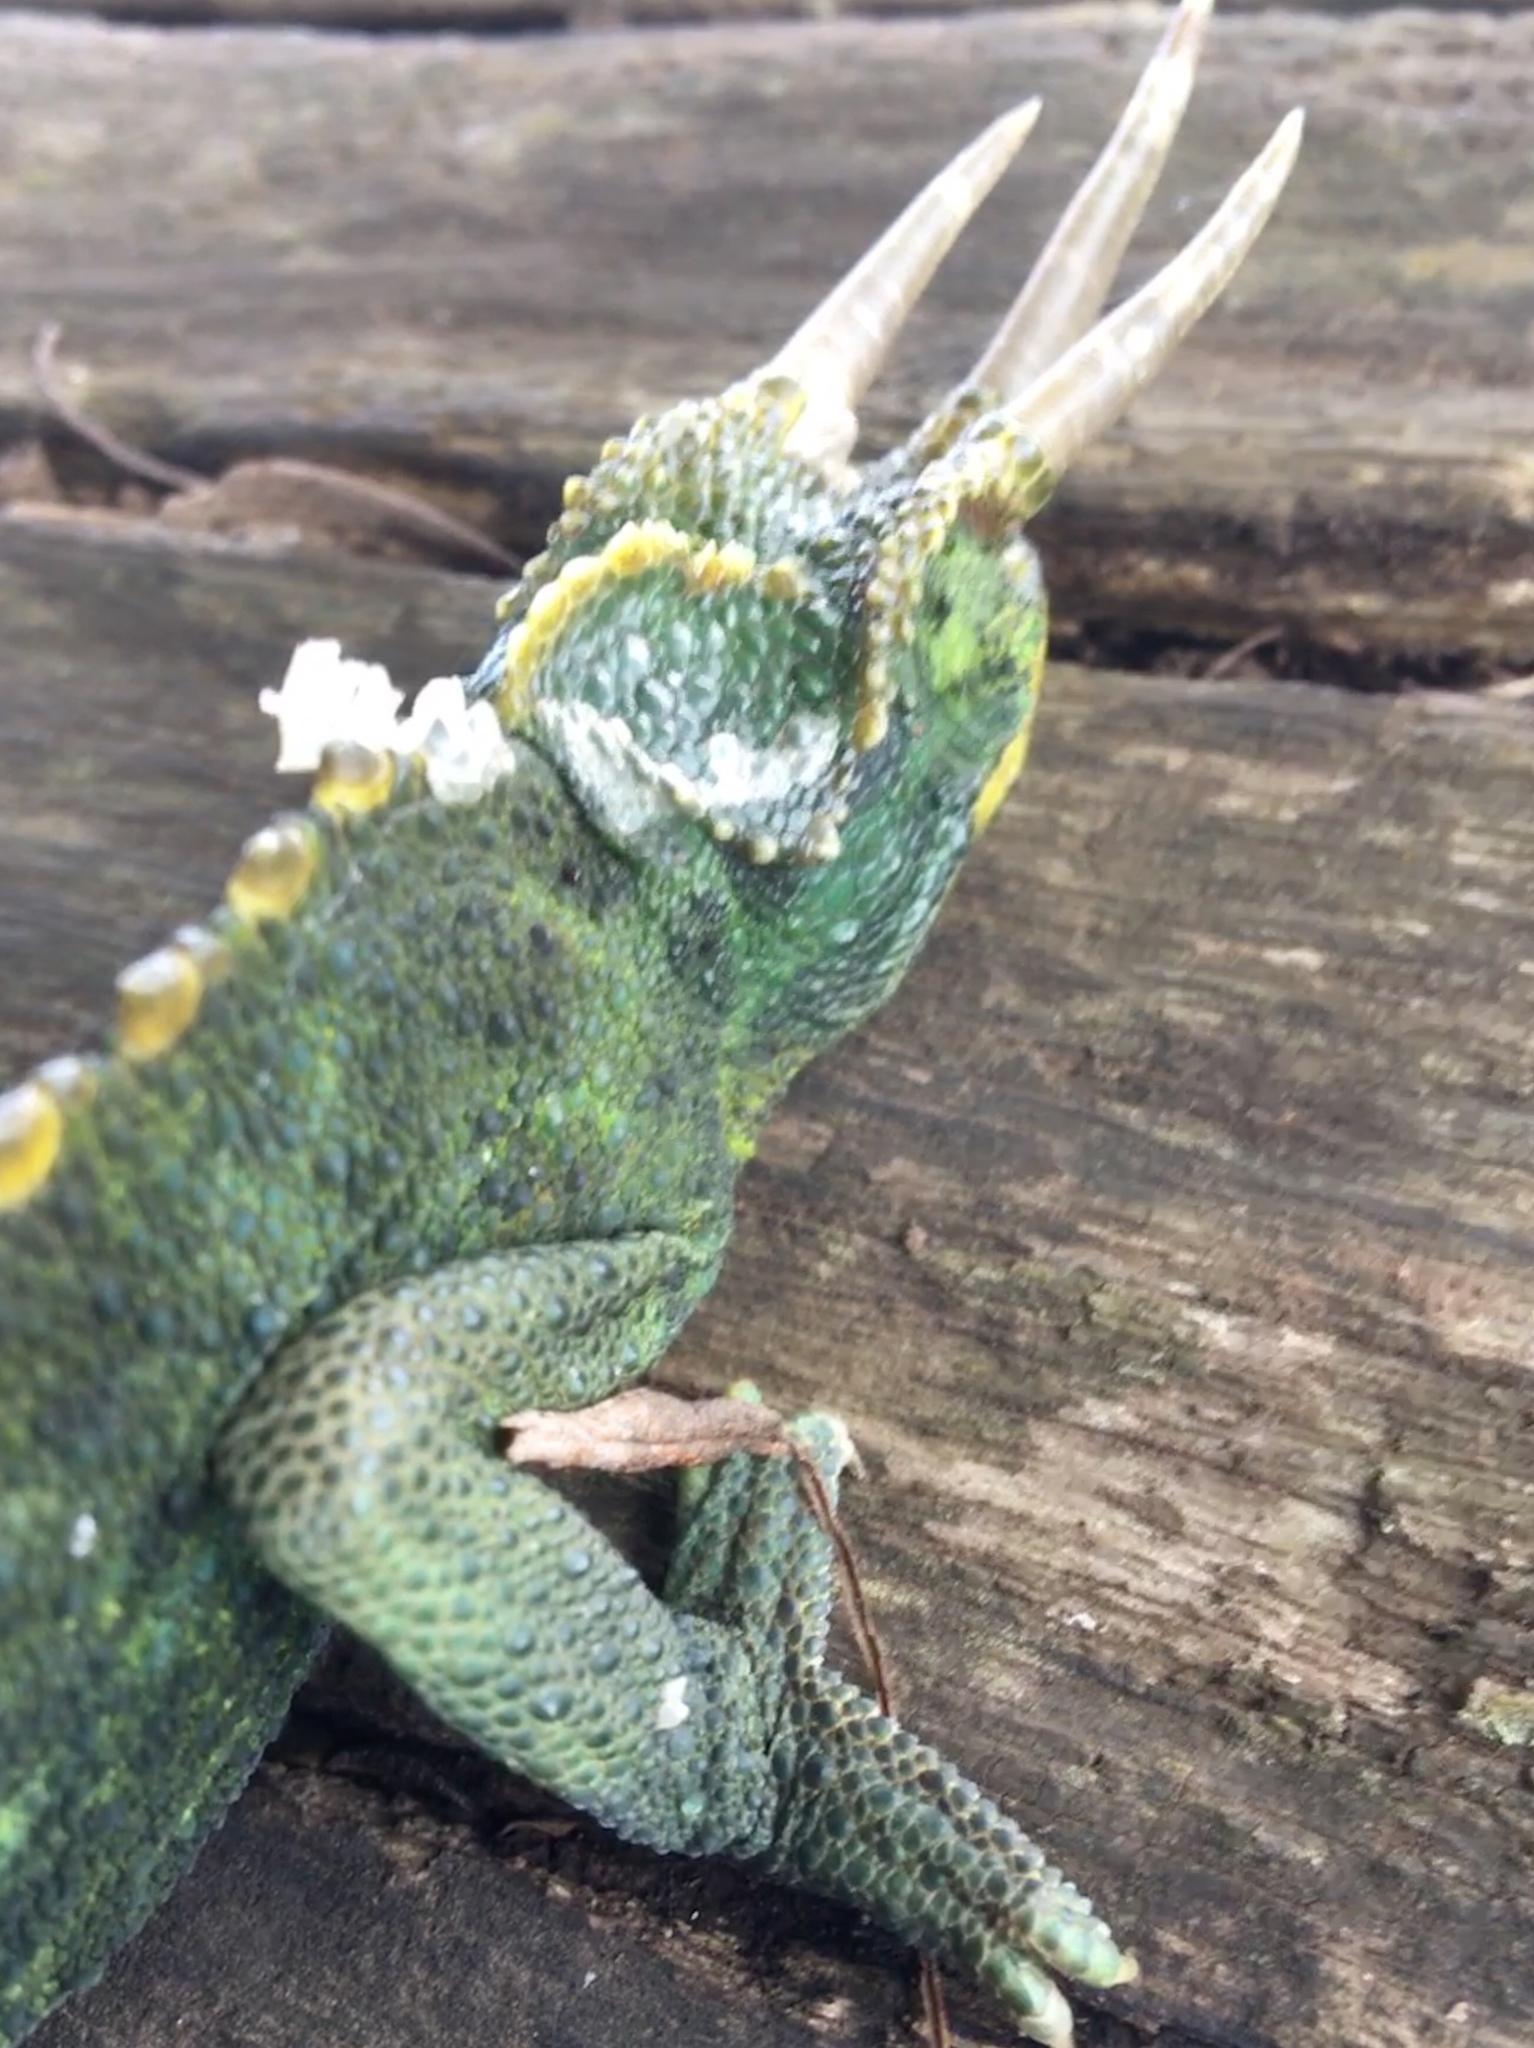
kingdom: Animalia
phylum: Chordata
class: Squamata
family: Chamaeleonidae
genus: Trioceros
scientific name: Trioceros jacksonii
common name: Jackson's chameleon
